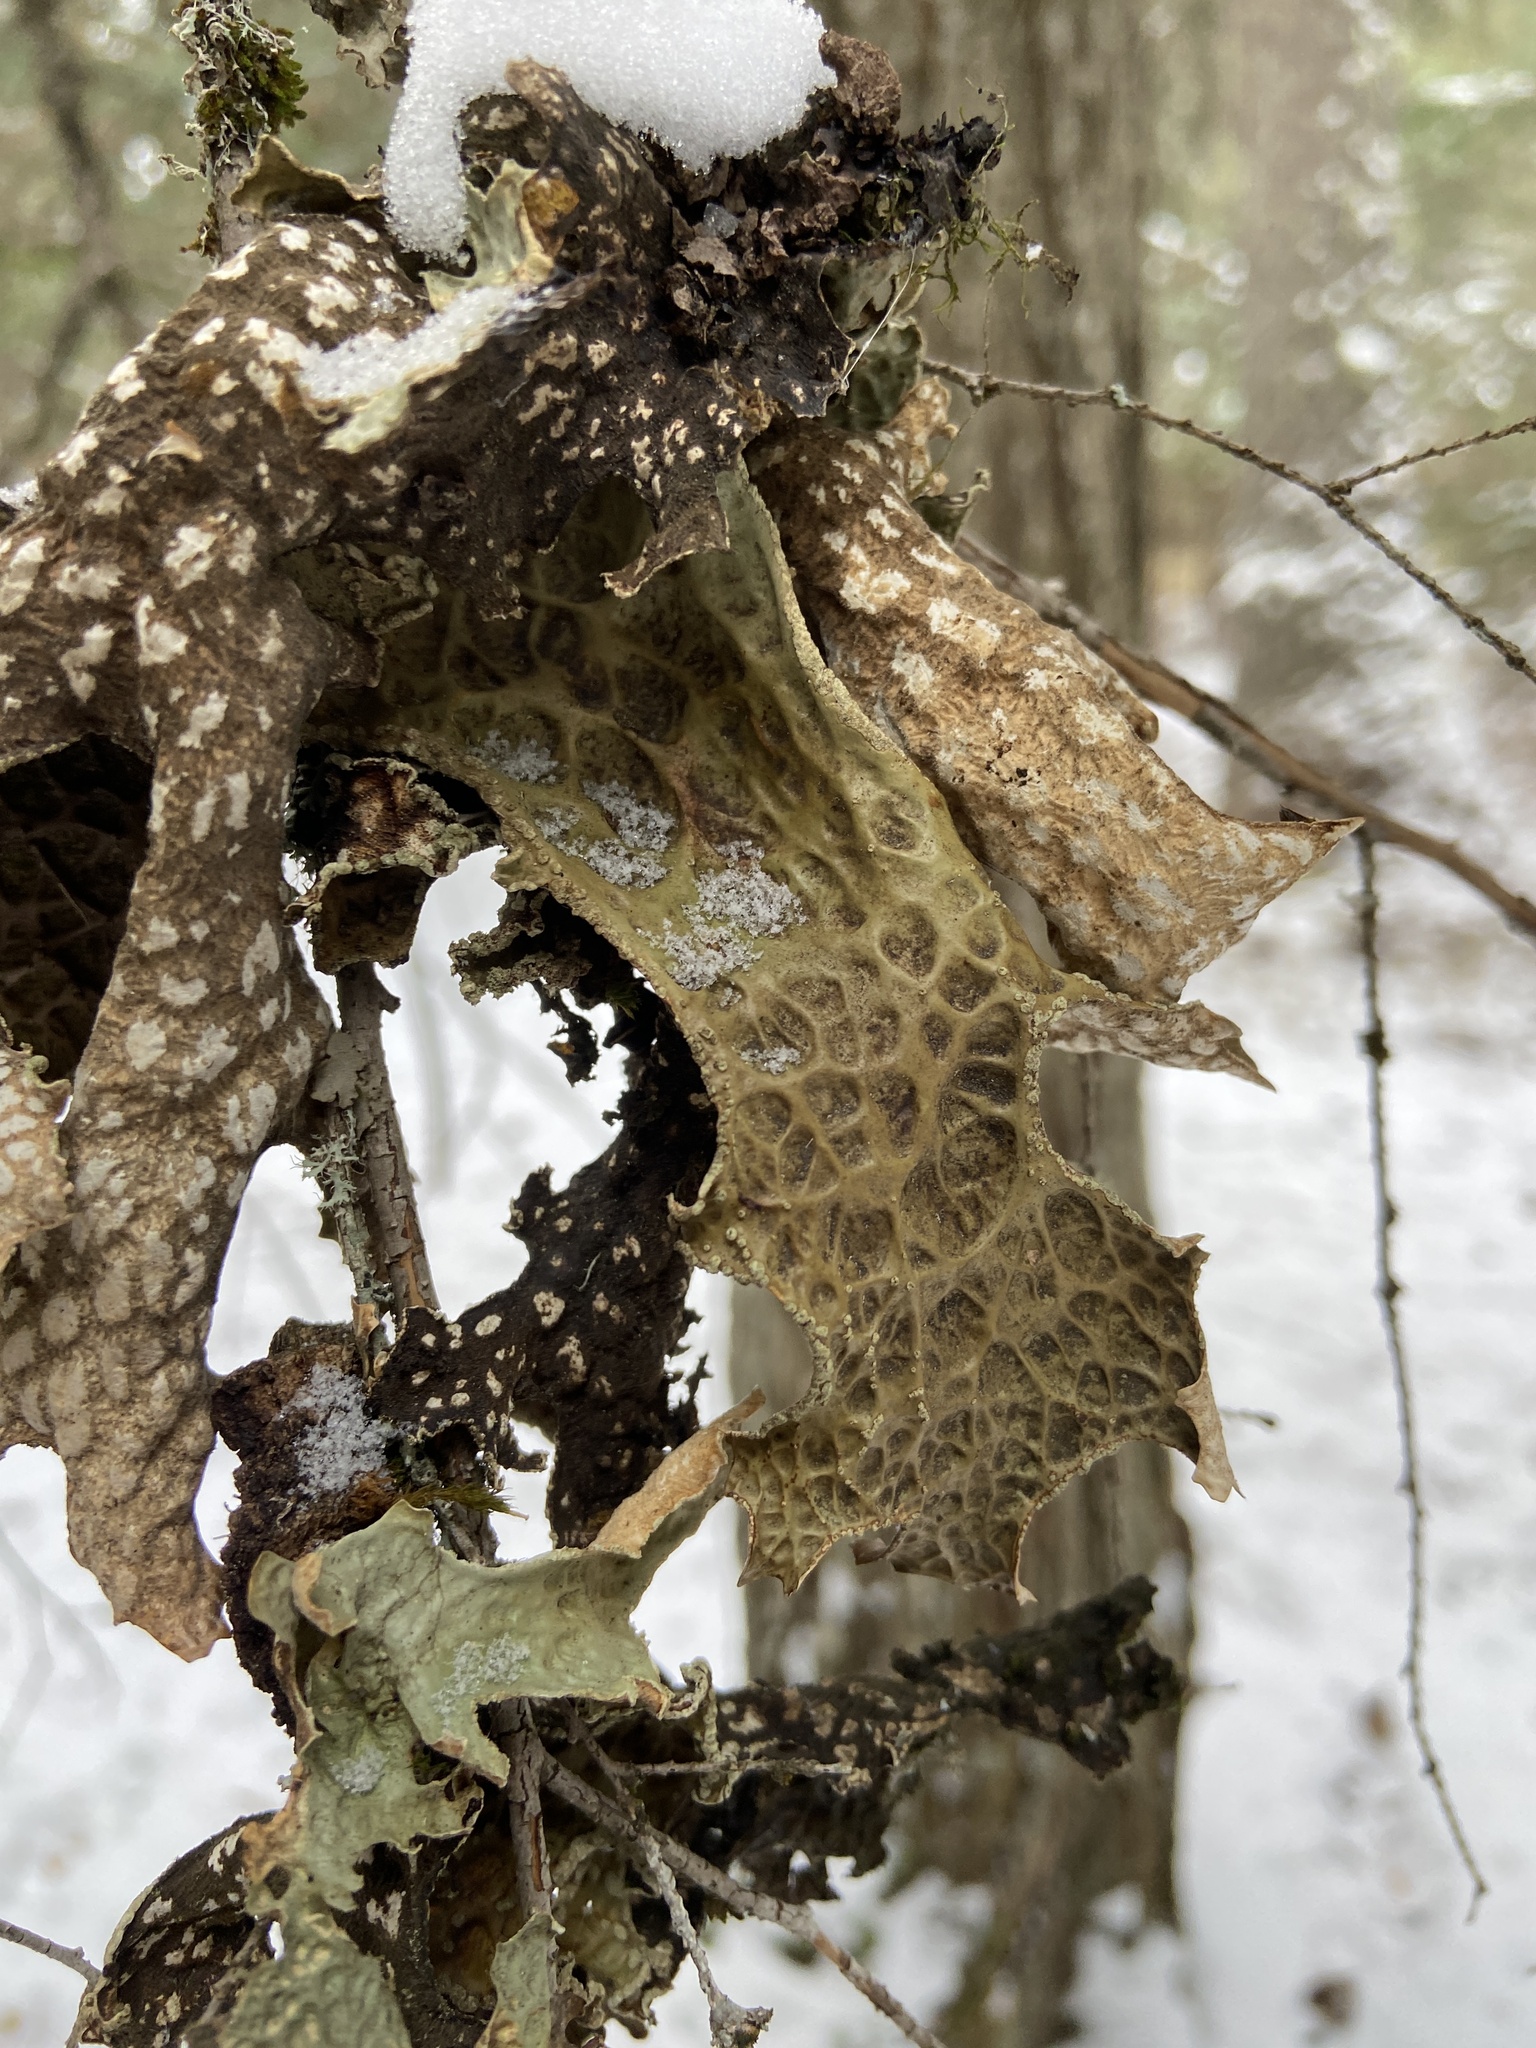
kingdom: Fungi
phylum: Ascomycota
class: Lecanoromycetes
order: Peltigerales
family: Lobariaceae
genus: Lobaria
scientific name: Lobaria pulmonaria
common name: Lungwort
